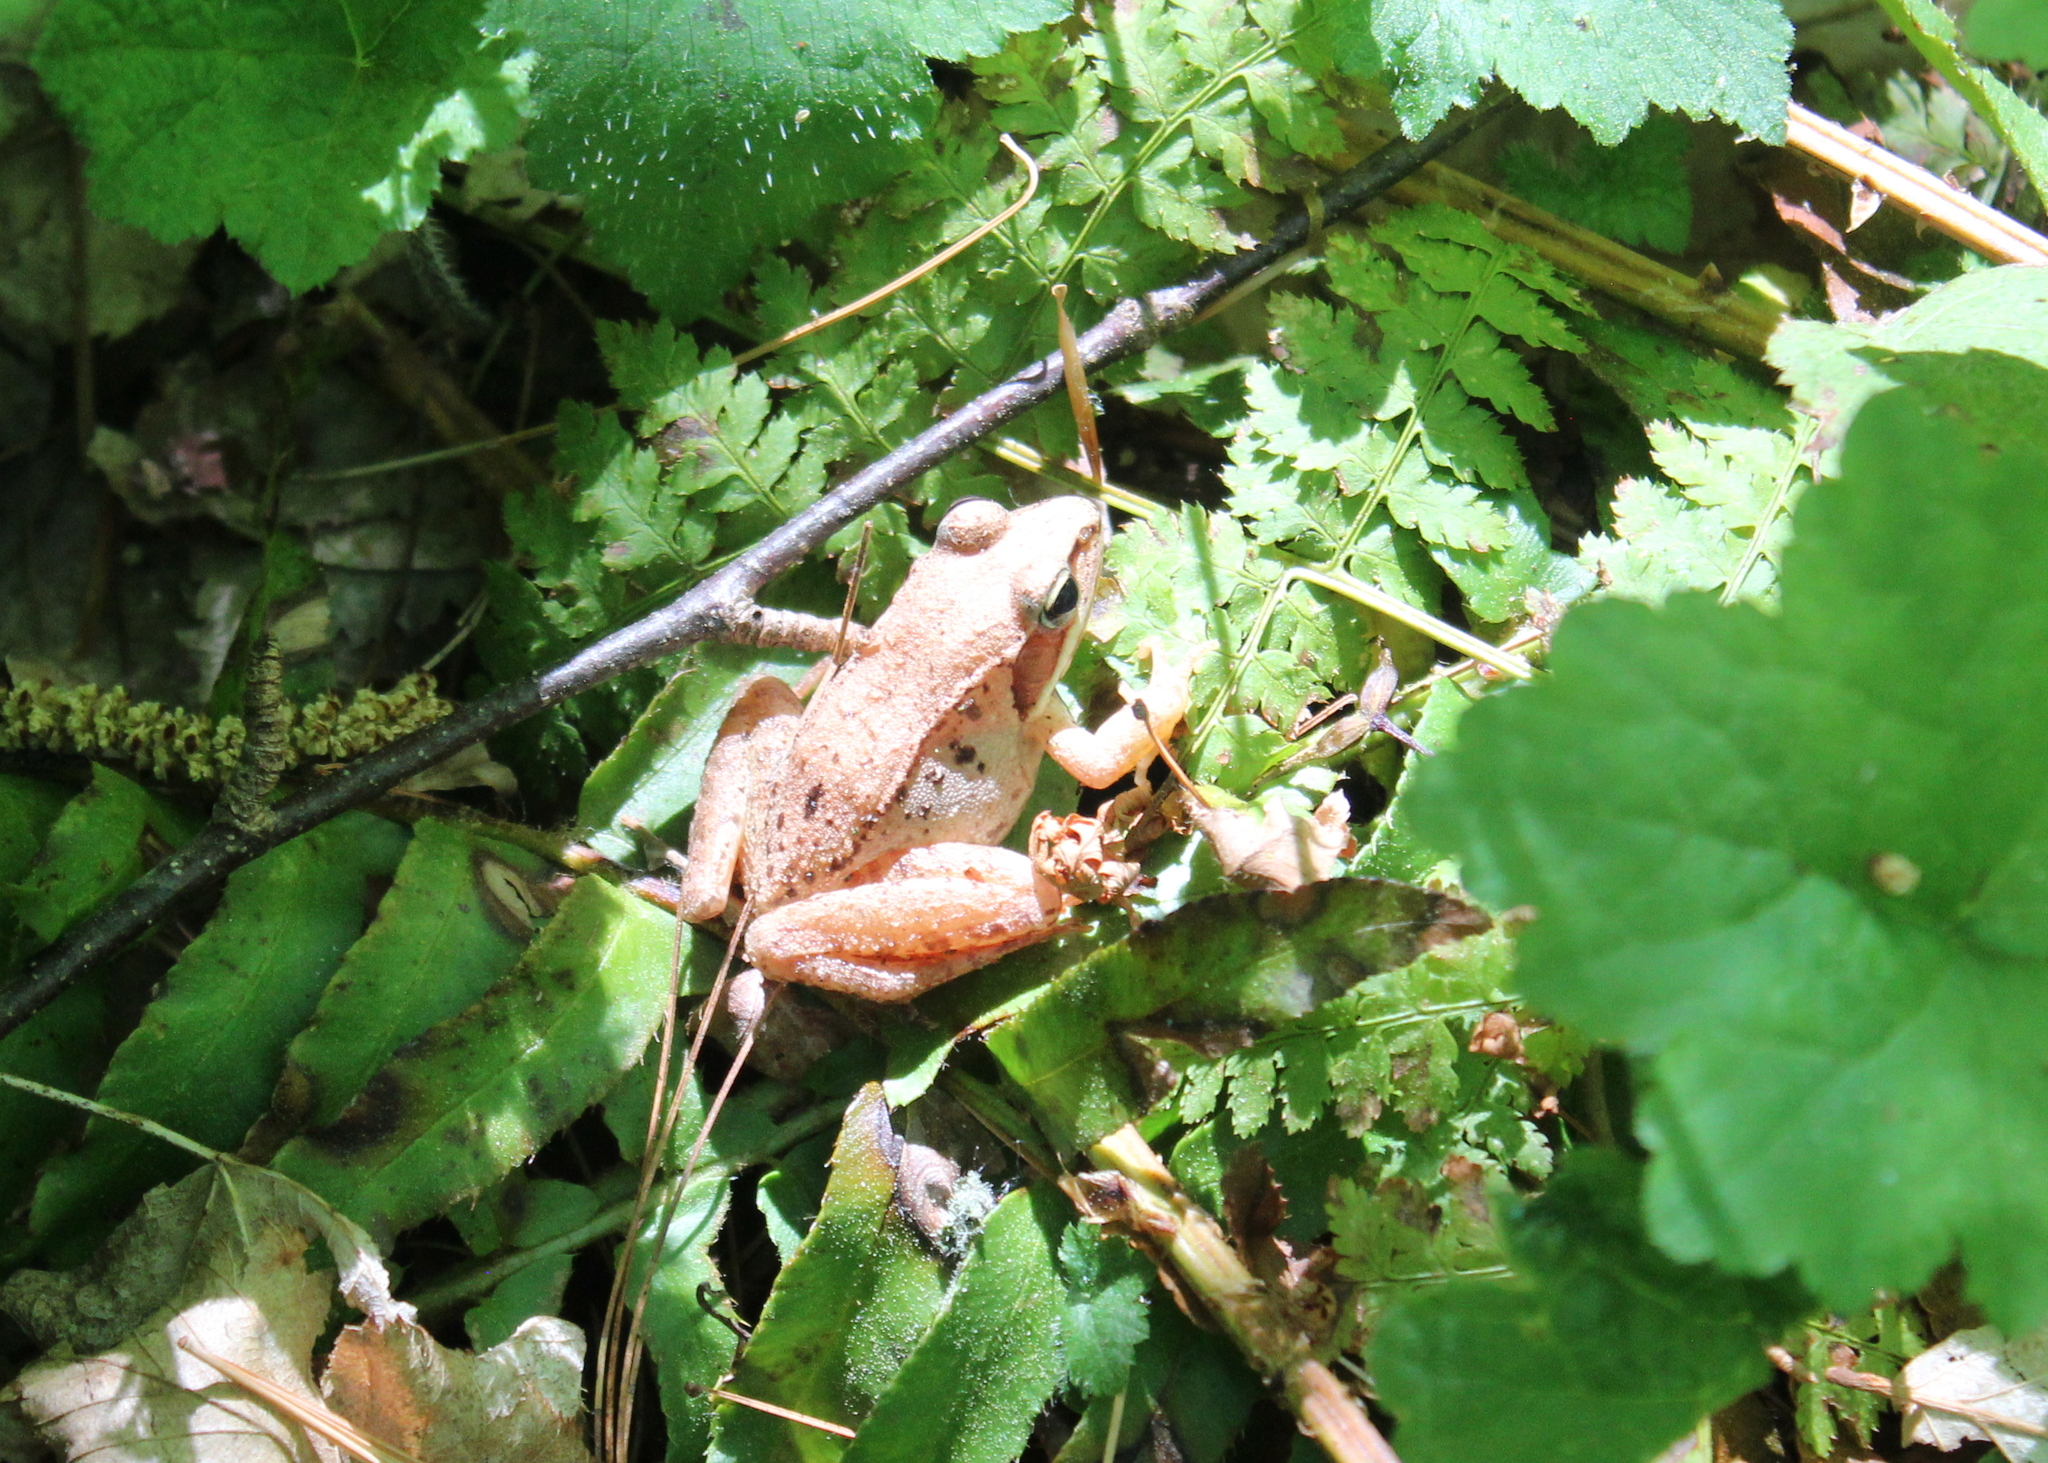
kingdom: Animalia
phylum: Chordata
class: Amphibia
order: Anura
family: Ranidae
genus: Lithobates
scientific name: Lithobates sylvaticus
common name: Wood frog
